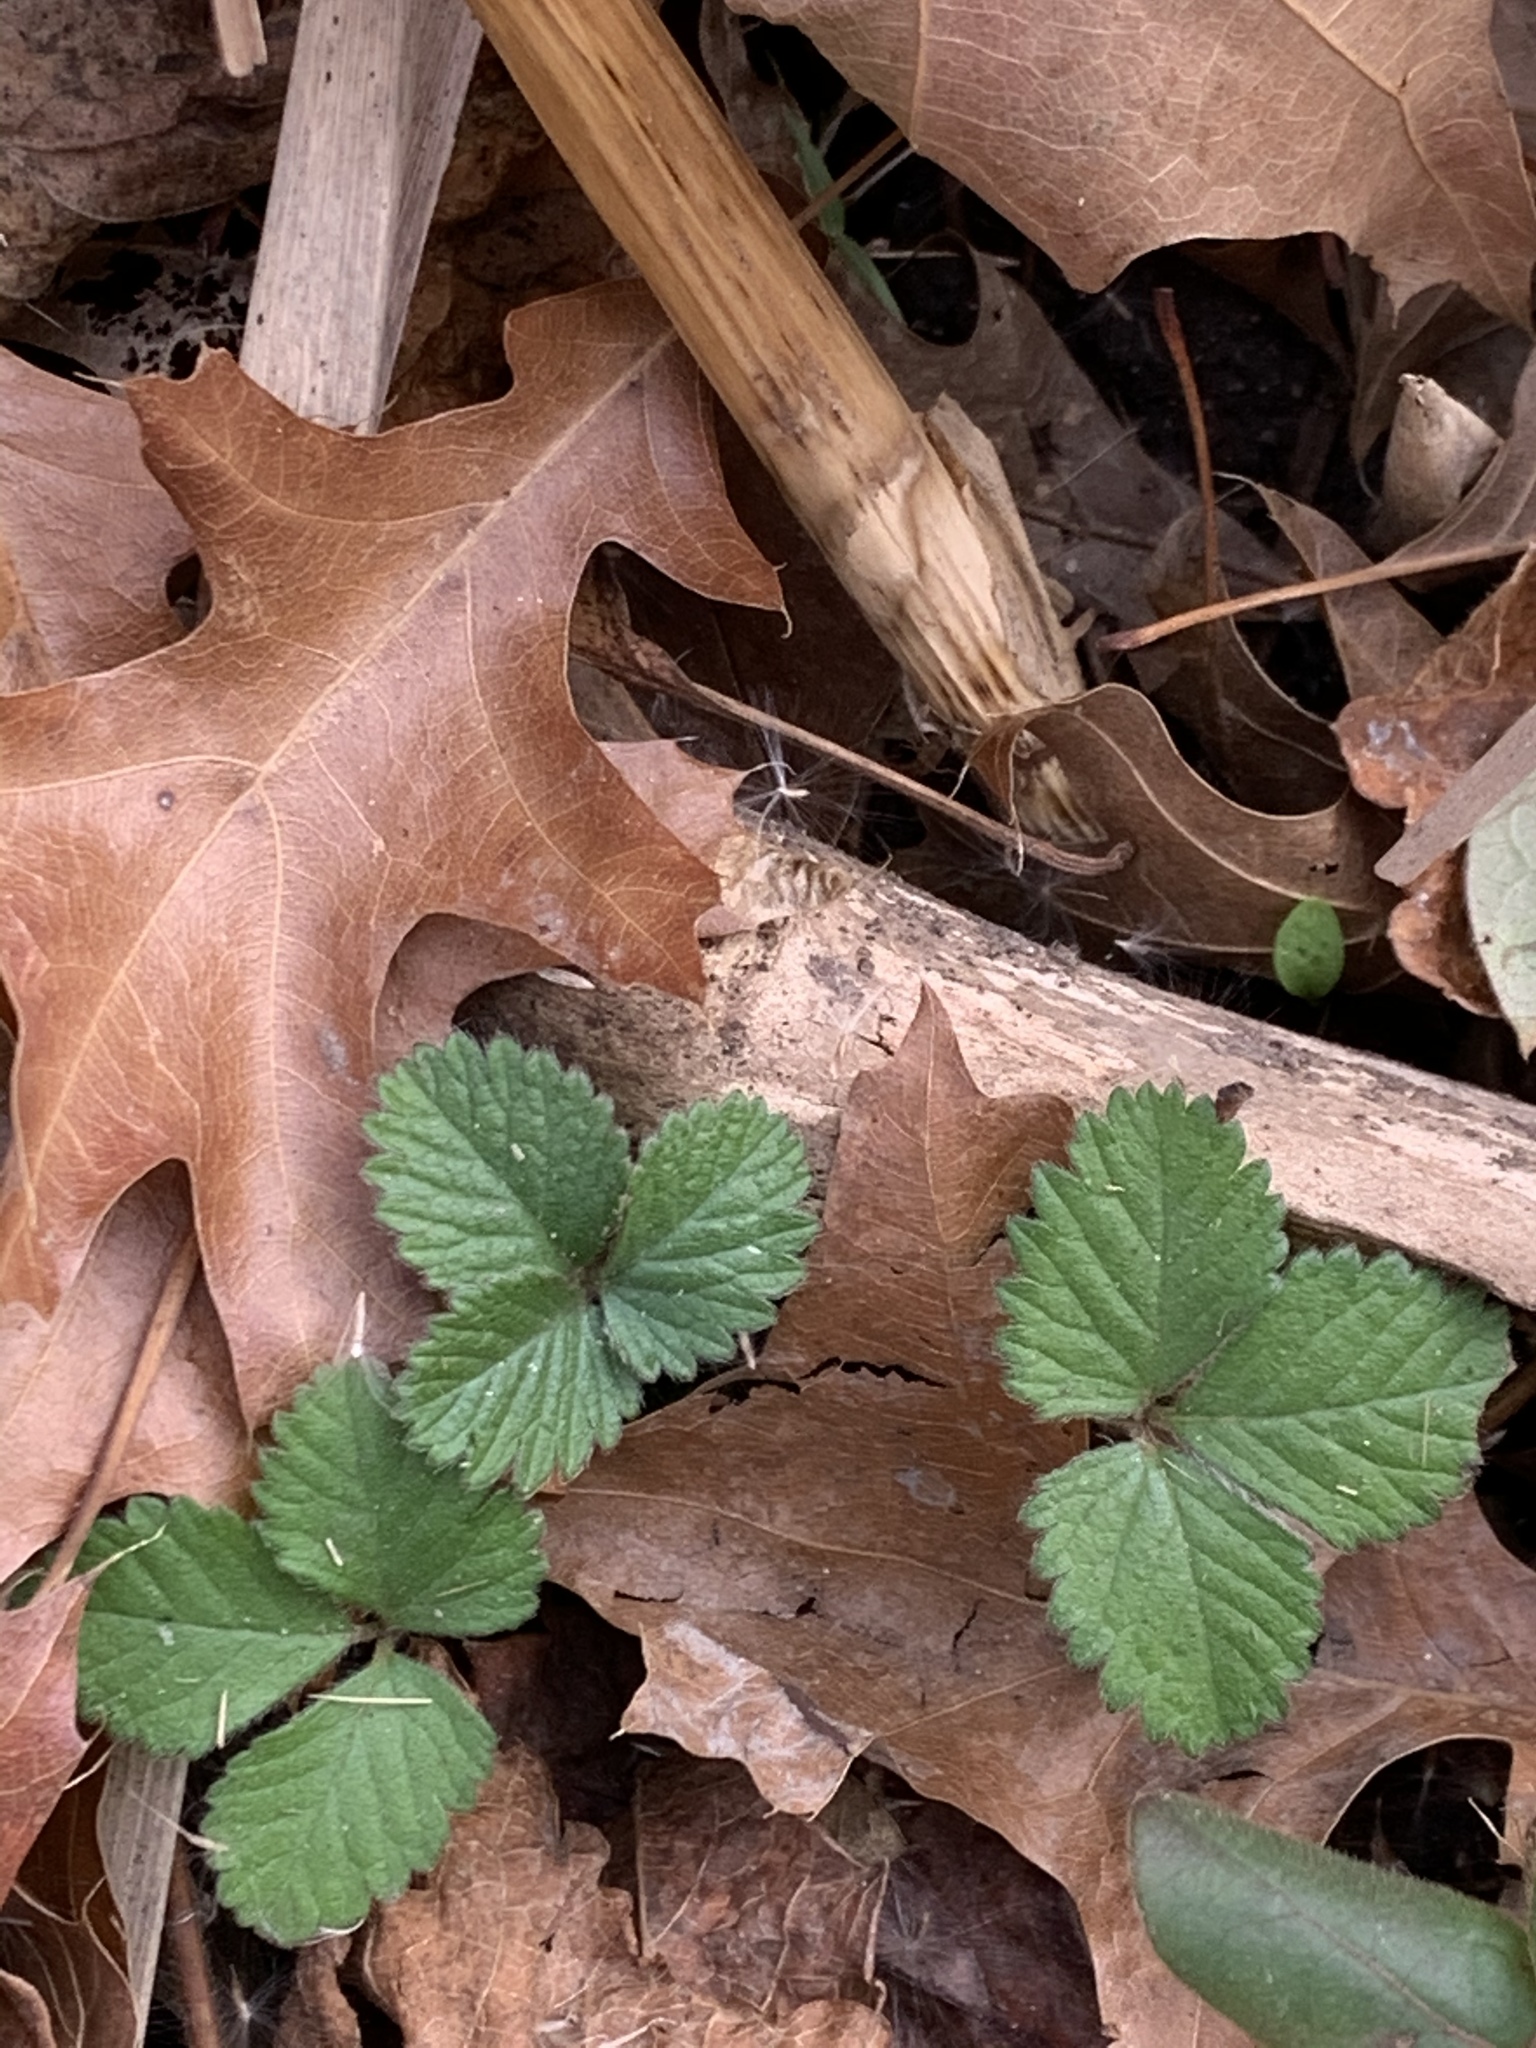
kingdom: Plantae
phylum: Tracheophyta
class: Magnoliopsida
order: Rosales
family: Rosaceae
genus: Potentilla
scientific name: Potentilla indica
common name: Yellow-flowered strawberry
